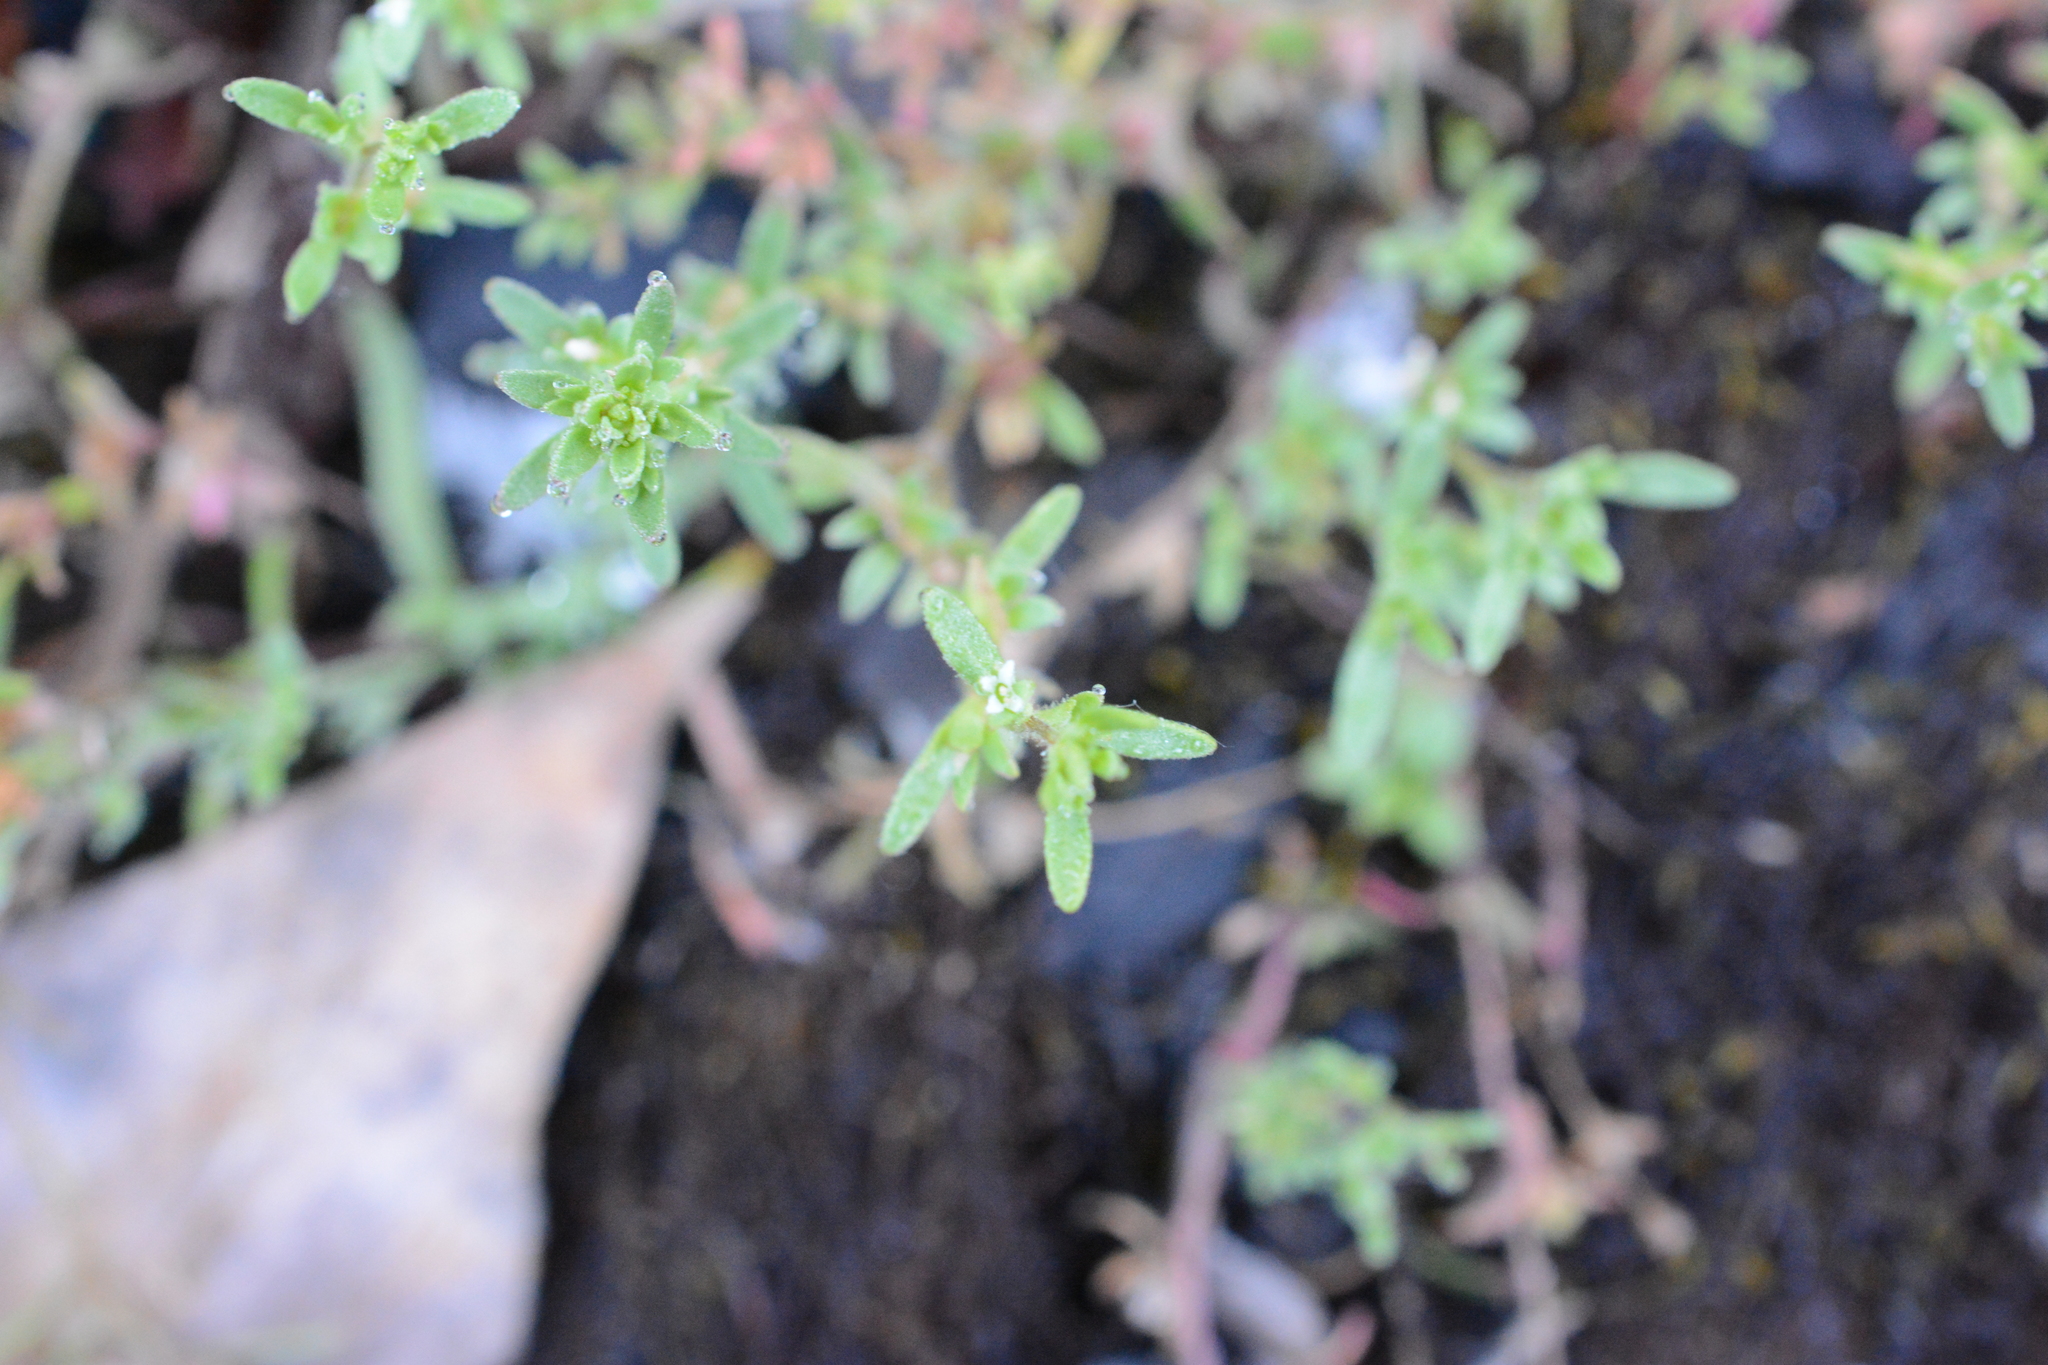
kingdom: Plantae
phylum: Tracheophyta
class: Magnoliopsida
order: Lamiales
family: Plantaginaceae
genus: Veronica
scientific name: Veronica peregrina
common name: Neckweed
